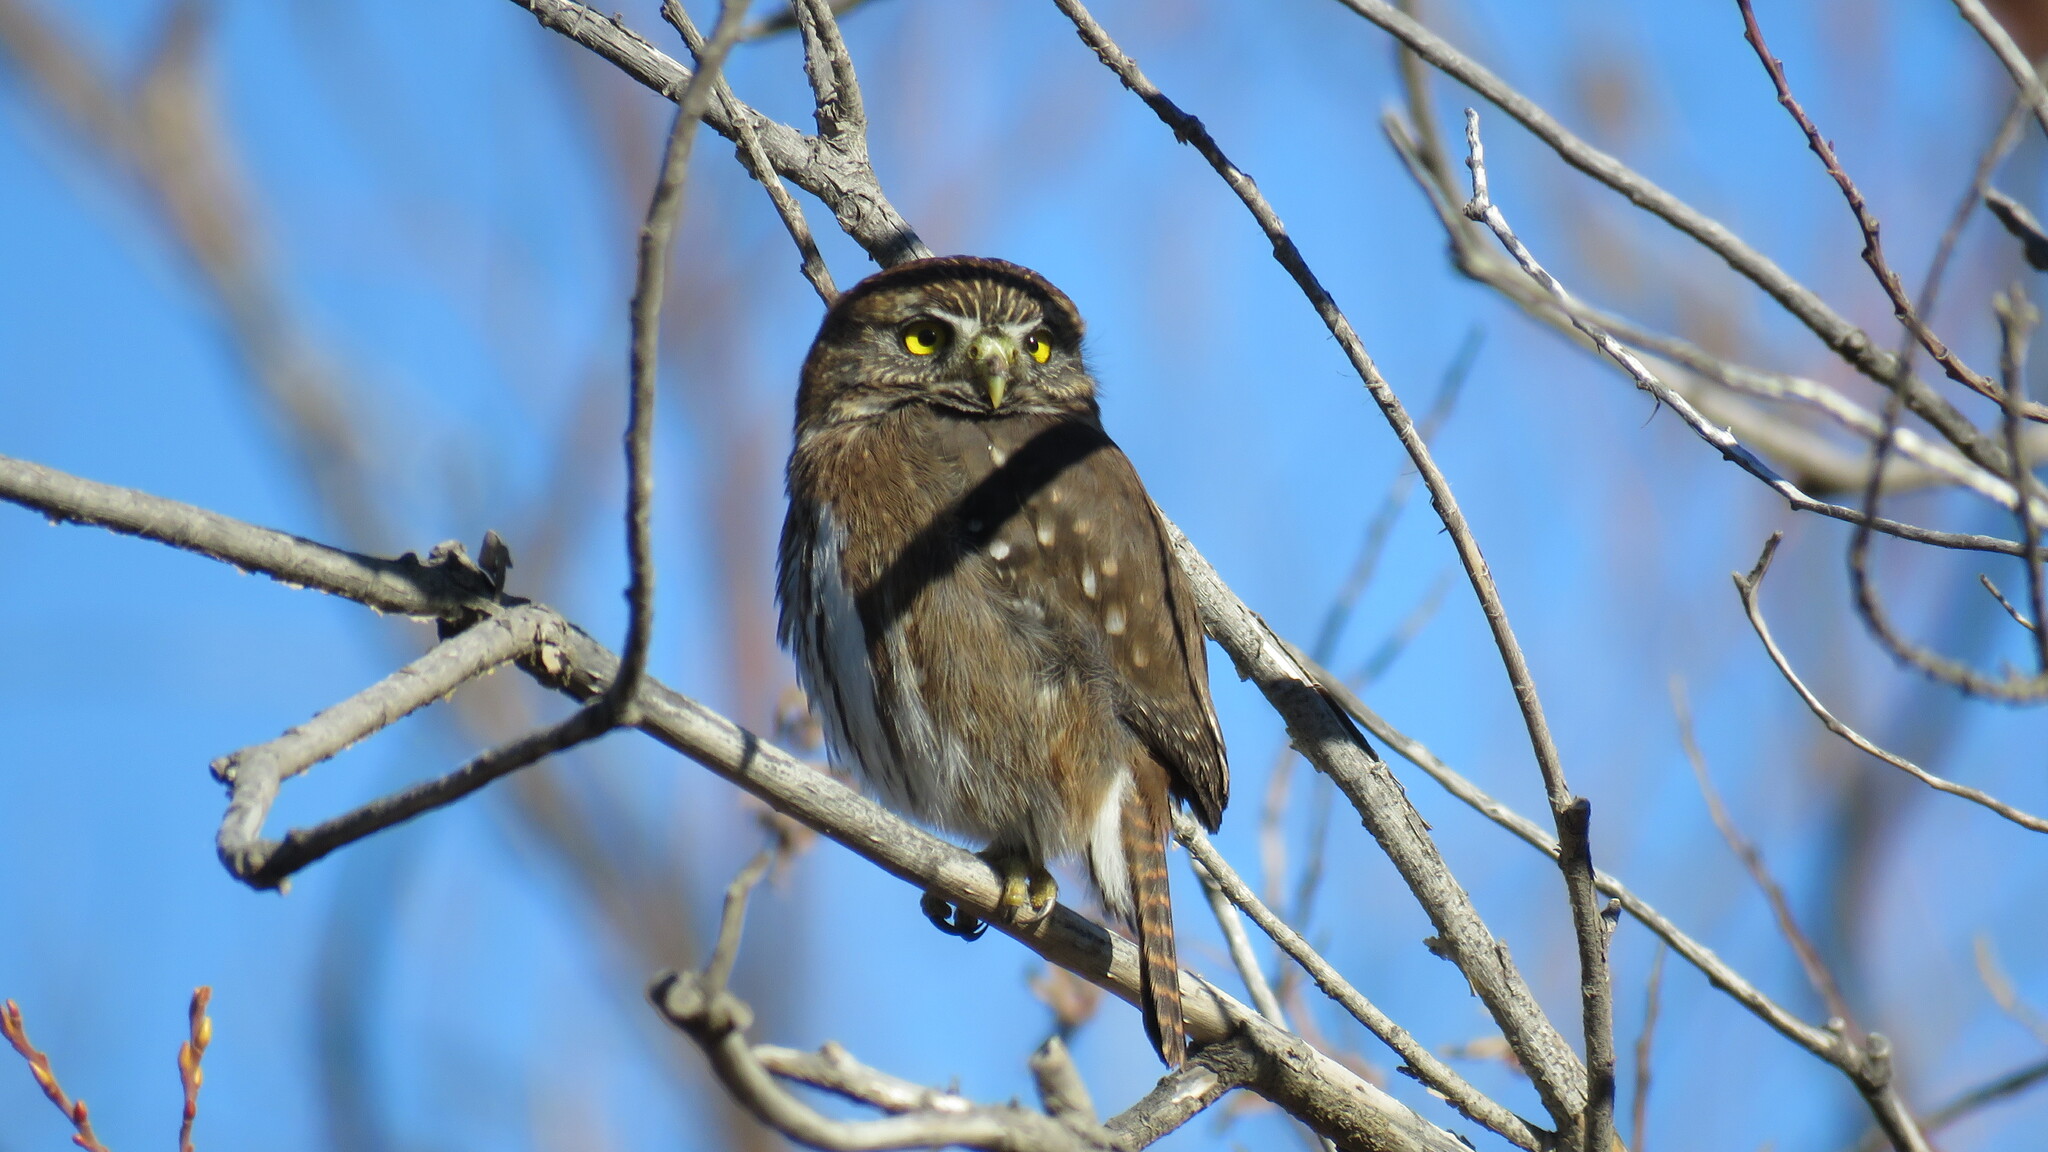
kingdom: Animalia
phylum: Chordata
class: Aves
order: Strigiformes
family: Strigidae
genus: Glaucidium
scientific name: Glaucidium nana
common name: Austral pygmy-owl
